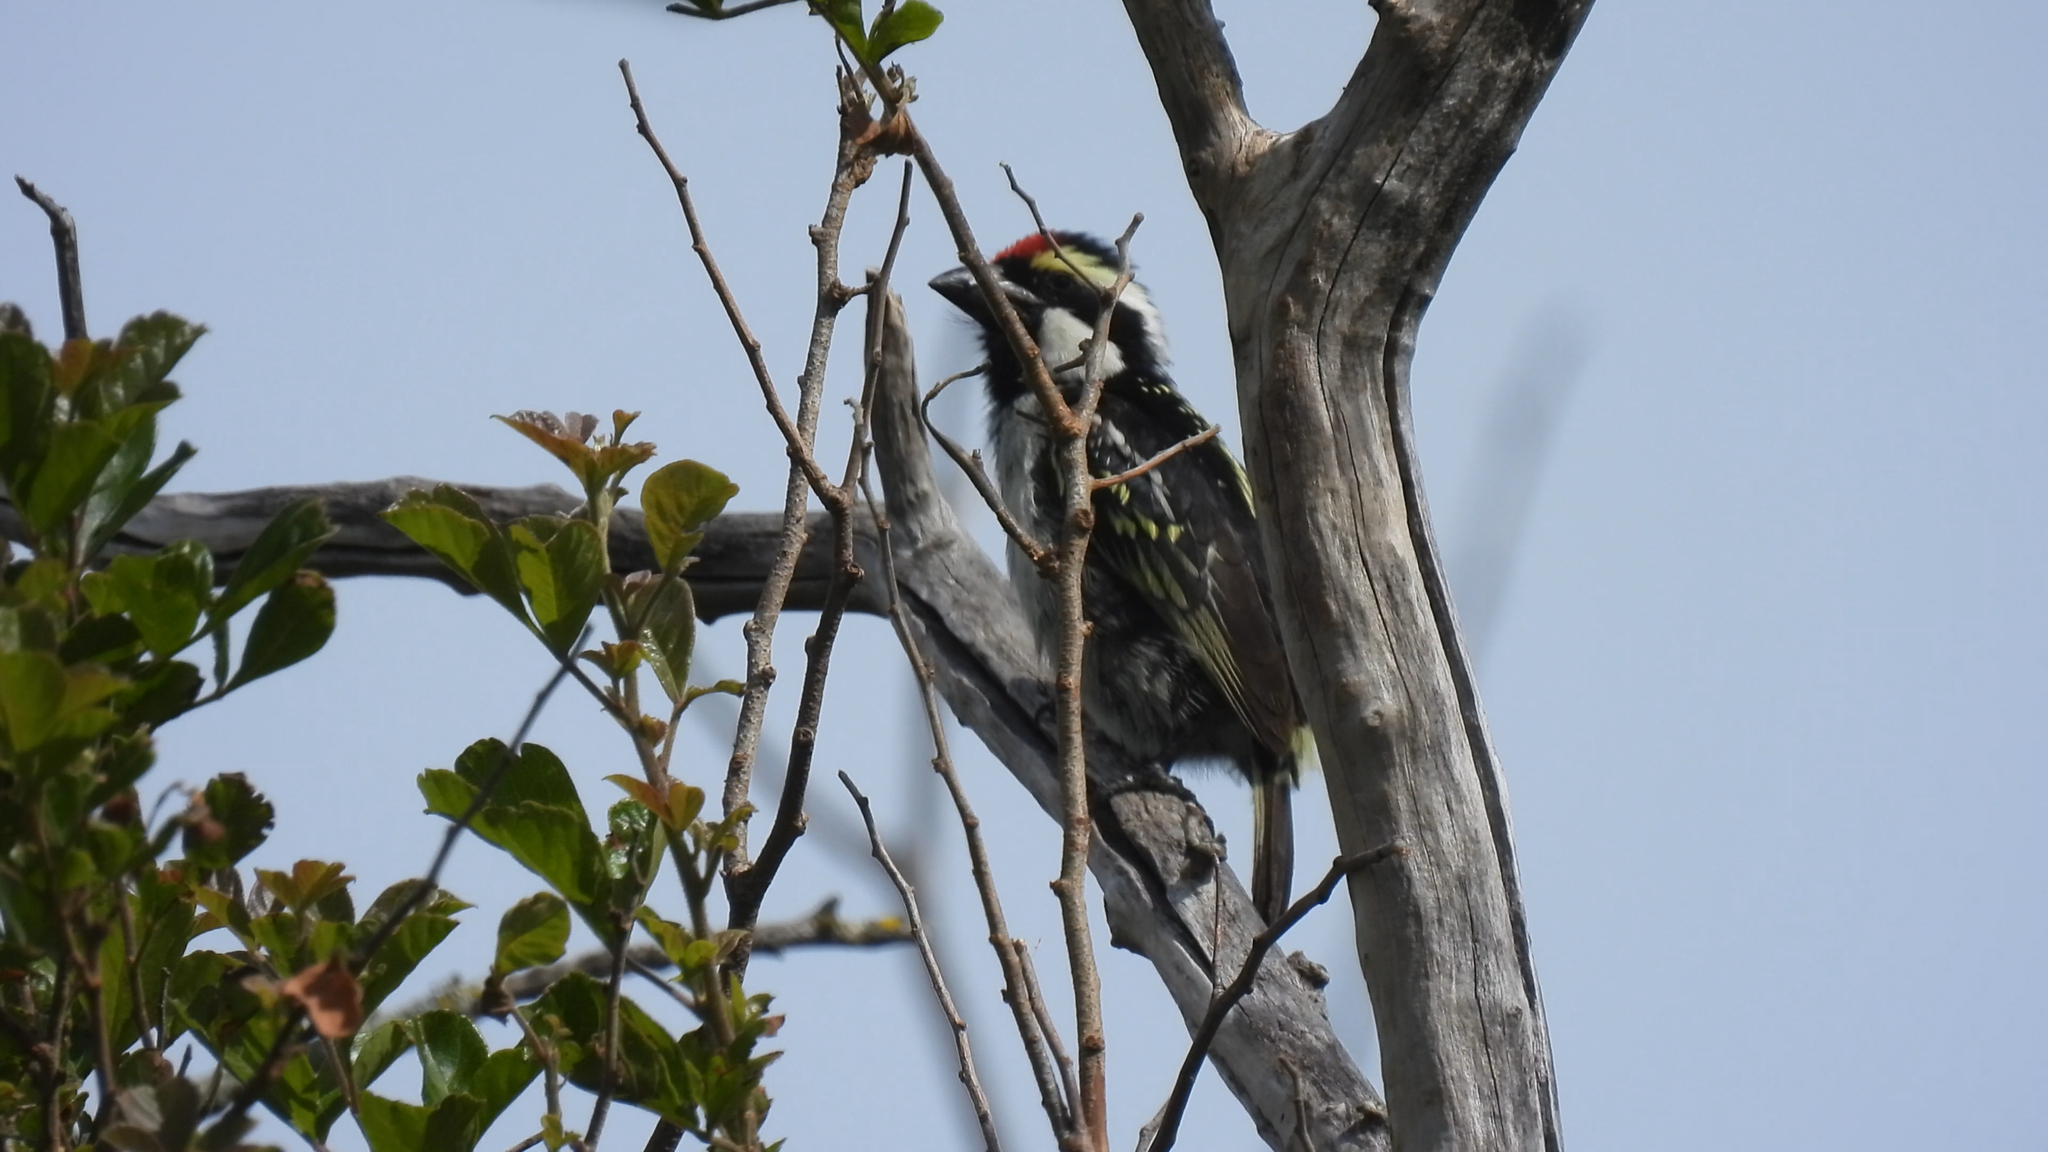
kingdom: Animalia
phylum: Chordata
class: Aves
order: Piciformes
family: Lybiidae
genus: Tricholaema
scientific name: Tricholaema leucomelas
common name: Acacia pied barbet
